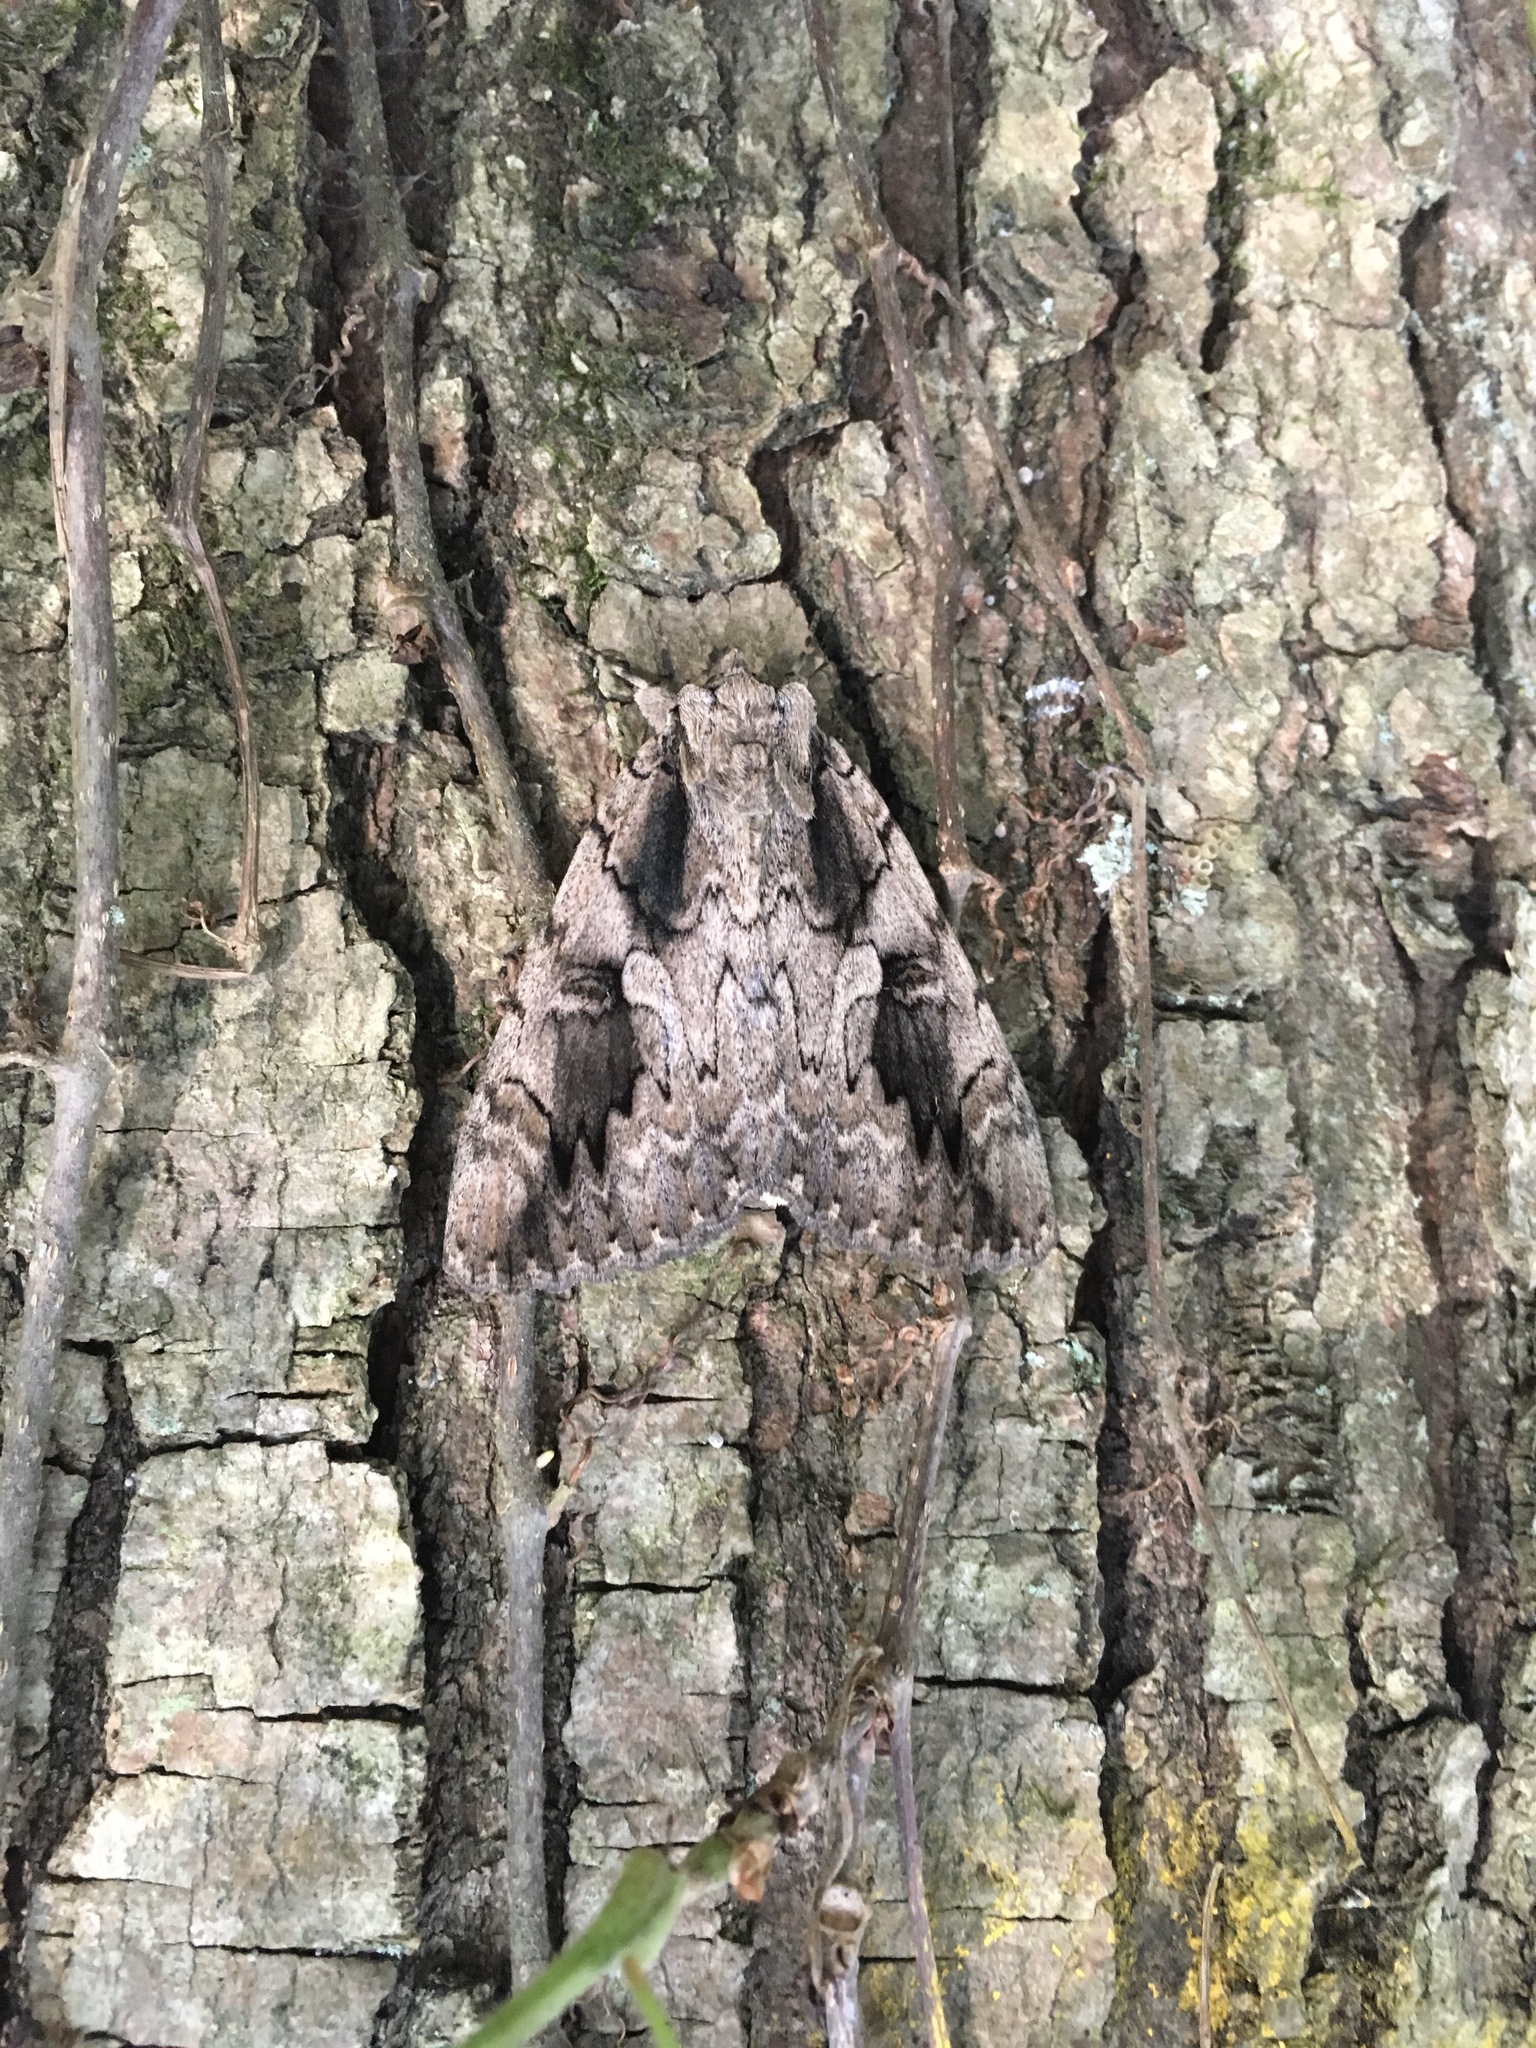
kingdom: Animalia
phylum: Arthropoda
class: Insecta
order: Lepidoptera
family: Erebidae
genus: Catocala
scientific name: Catocala amatrix
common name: Sweetheart underwing
